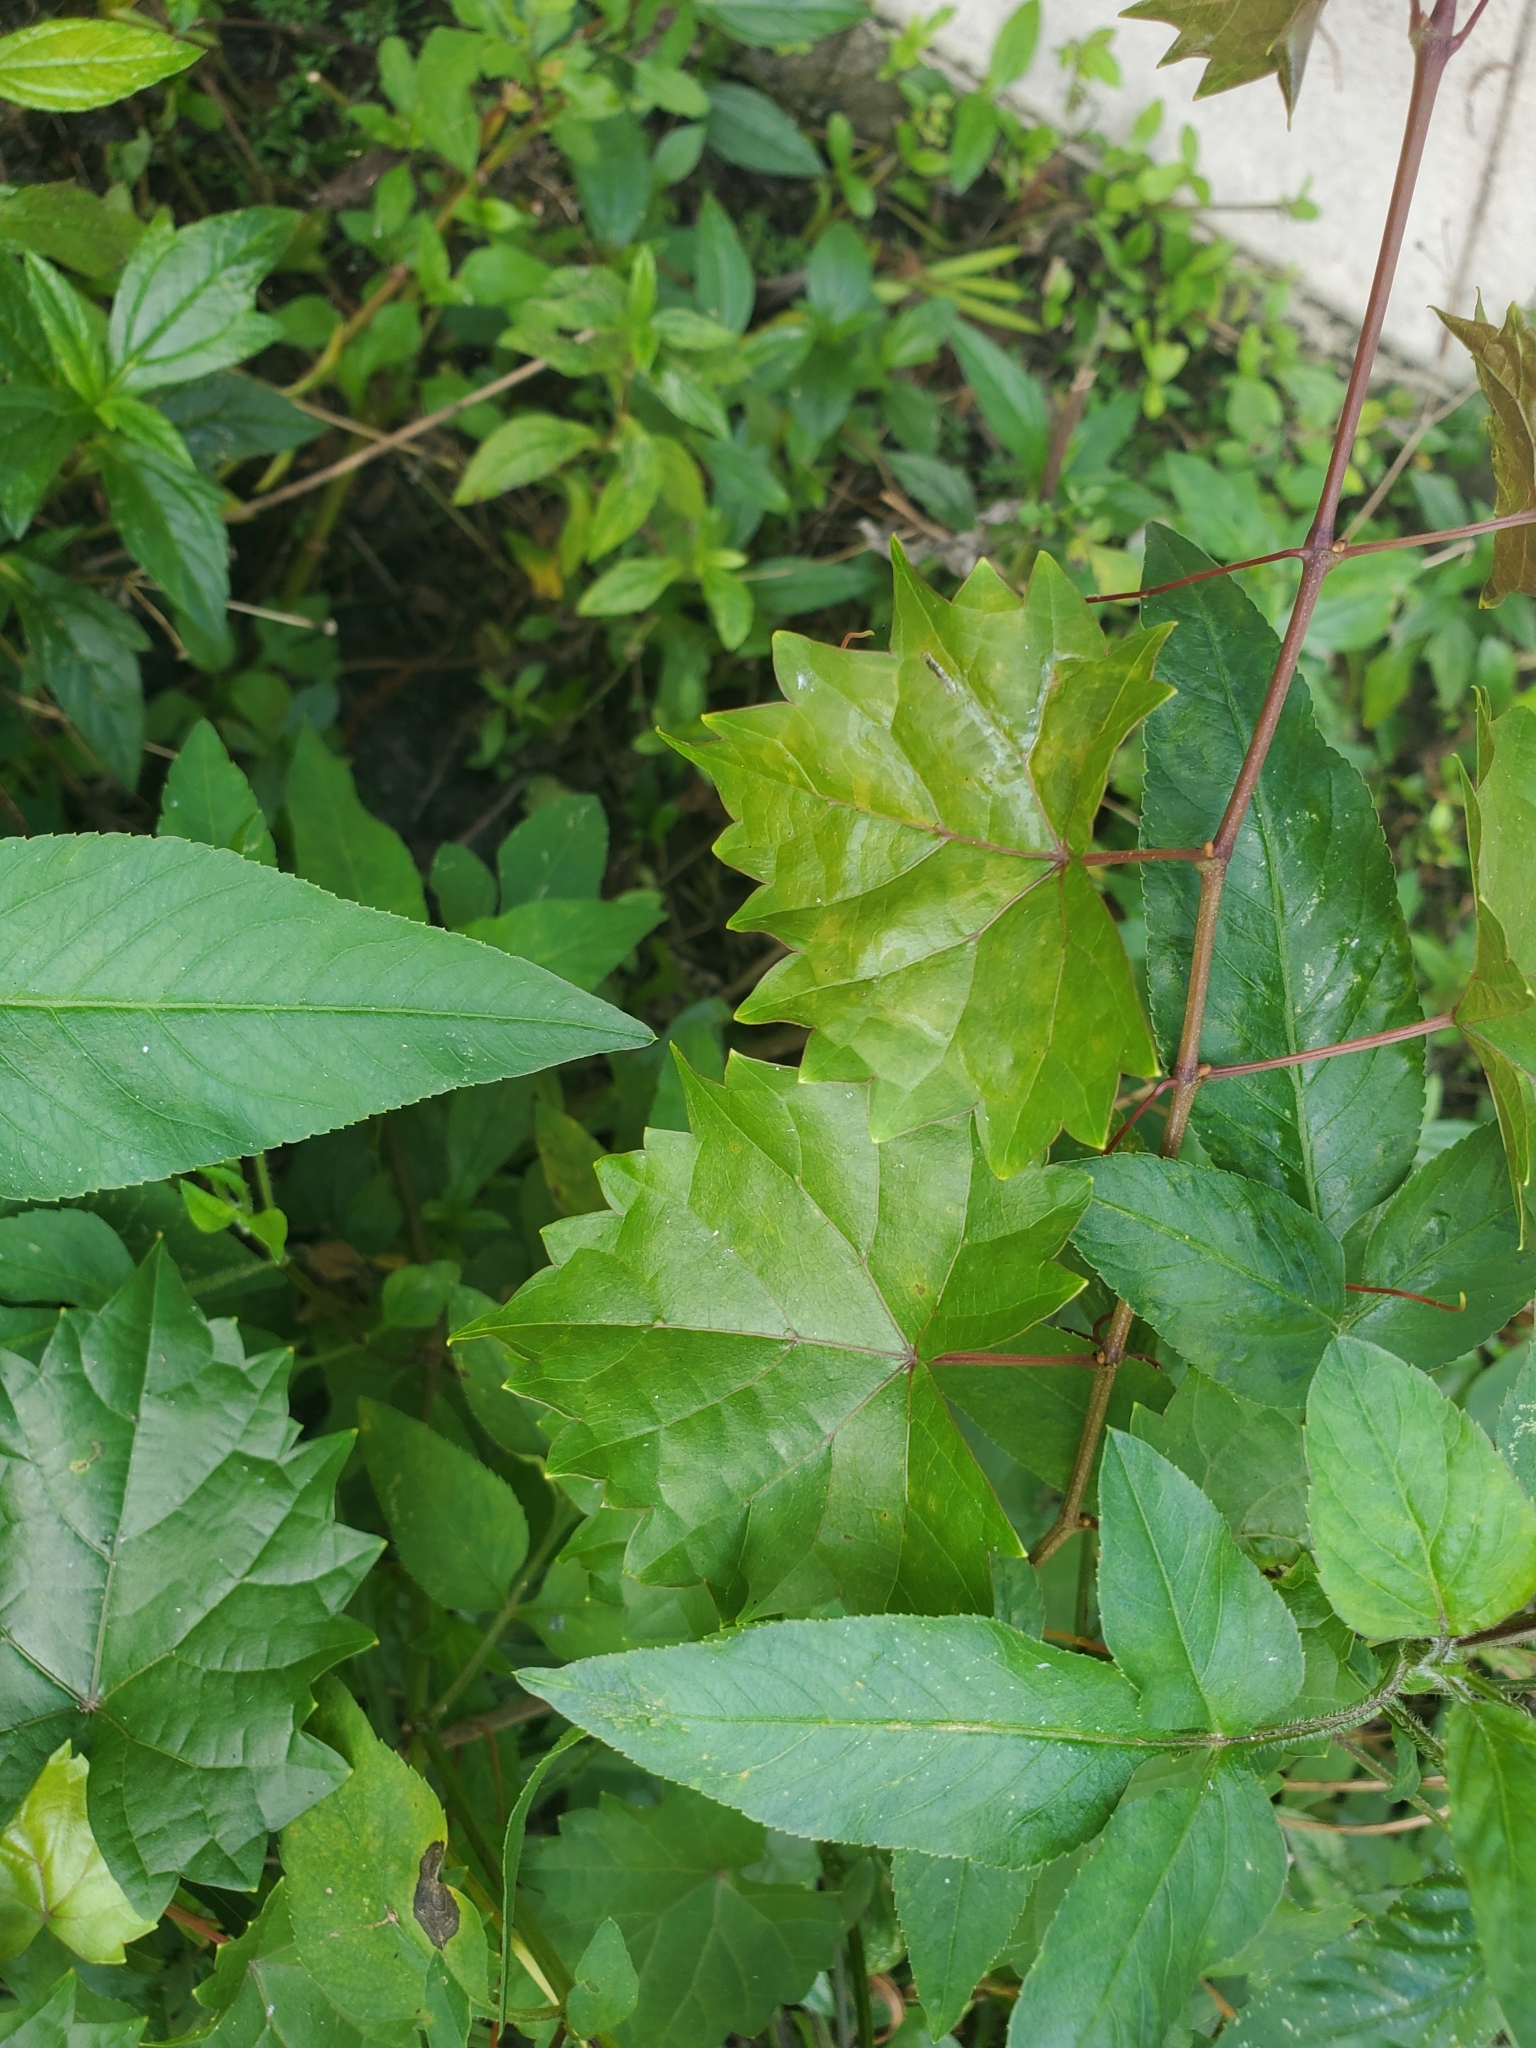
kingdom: Plantae
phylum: Tracheophyta
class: Magnoliopsida
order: Vitales
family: Vitaceae
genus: Vitis
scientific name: Vitis rotundifolia
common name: Muscadine grape
